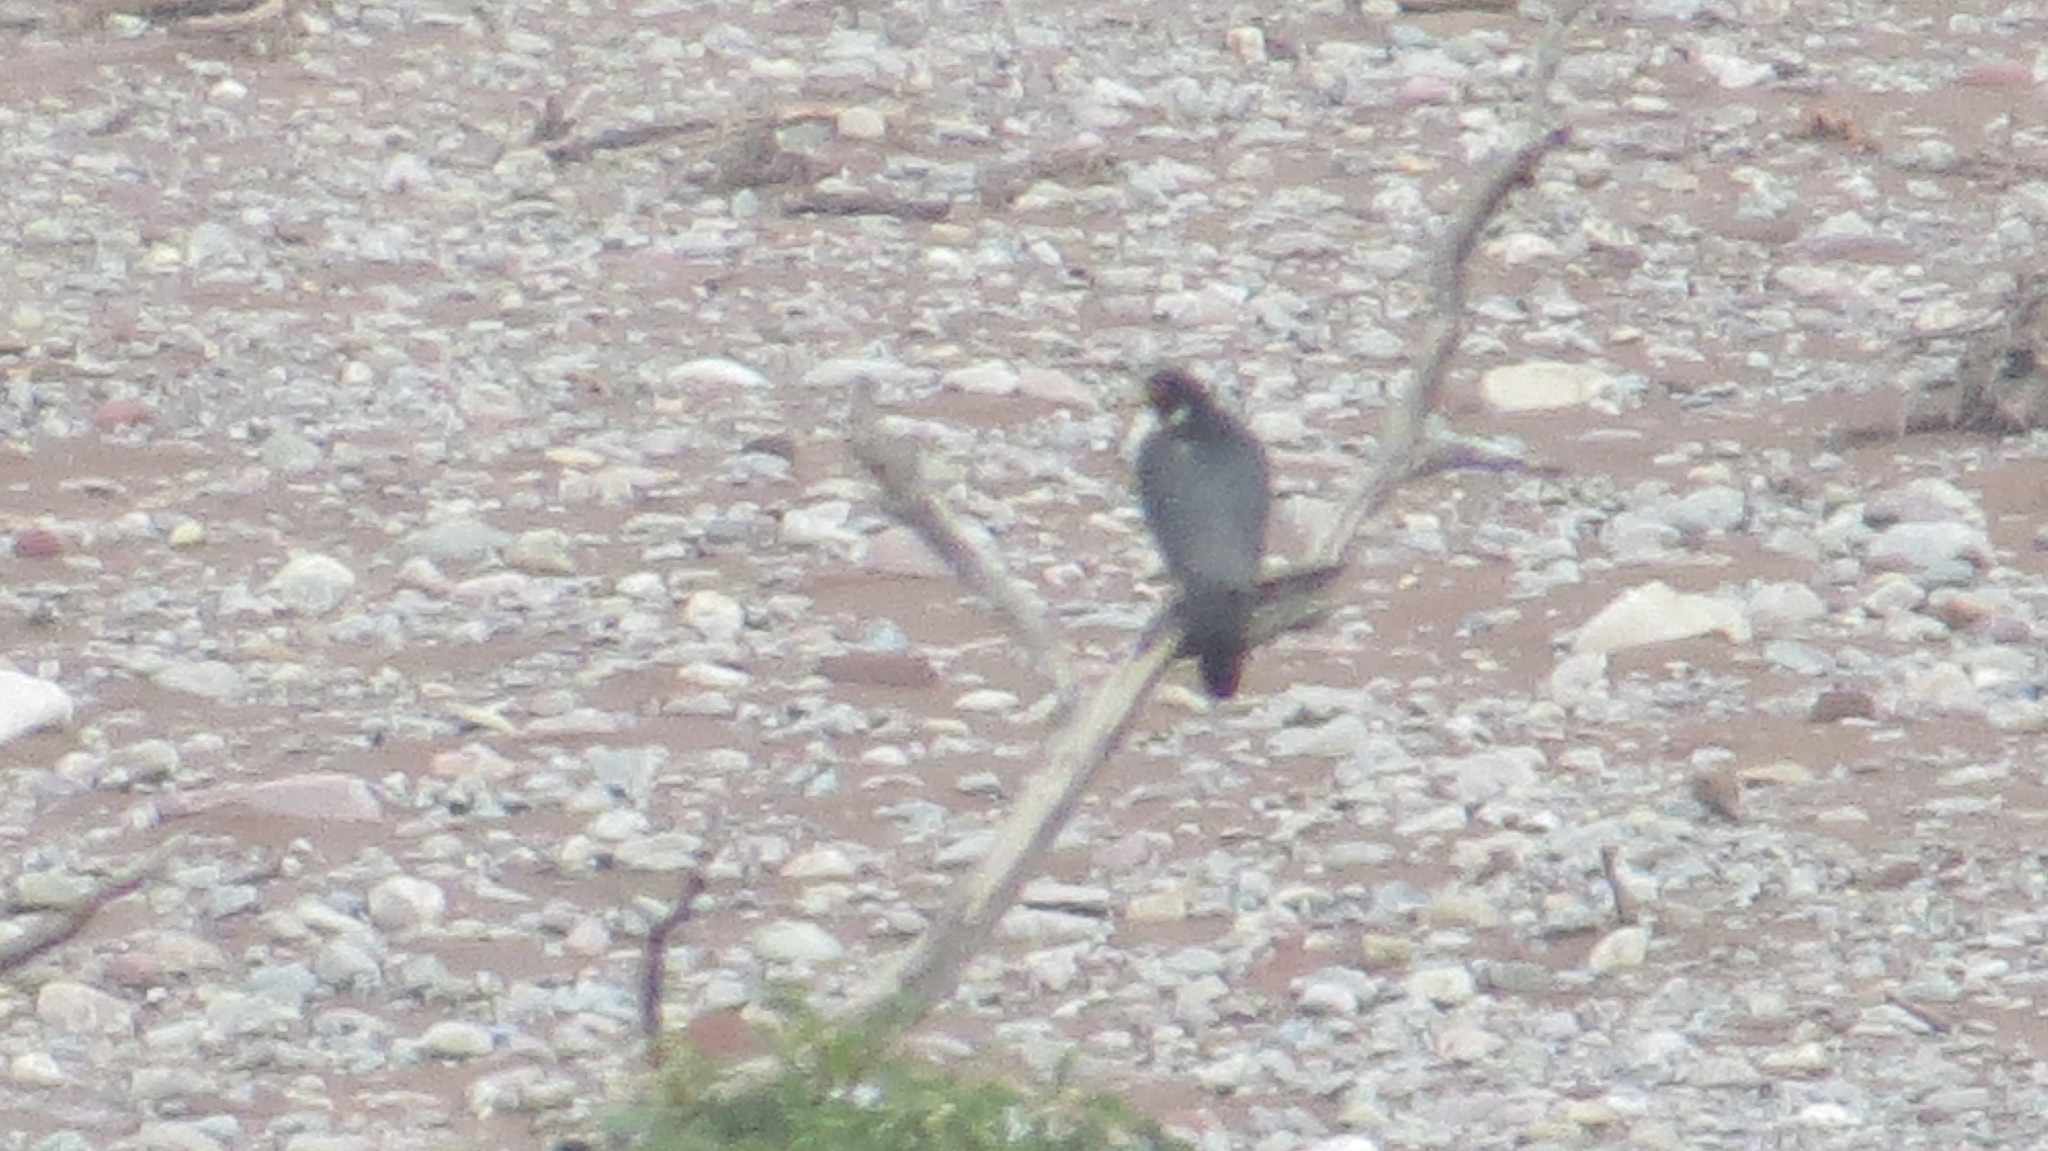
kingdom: Animalia
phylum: Chordata
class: Aves
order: Falconiformes
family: Falconidae
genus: Falco
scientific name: Falco peregrinus
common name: Peregrine falcon
